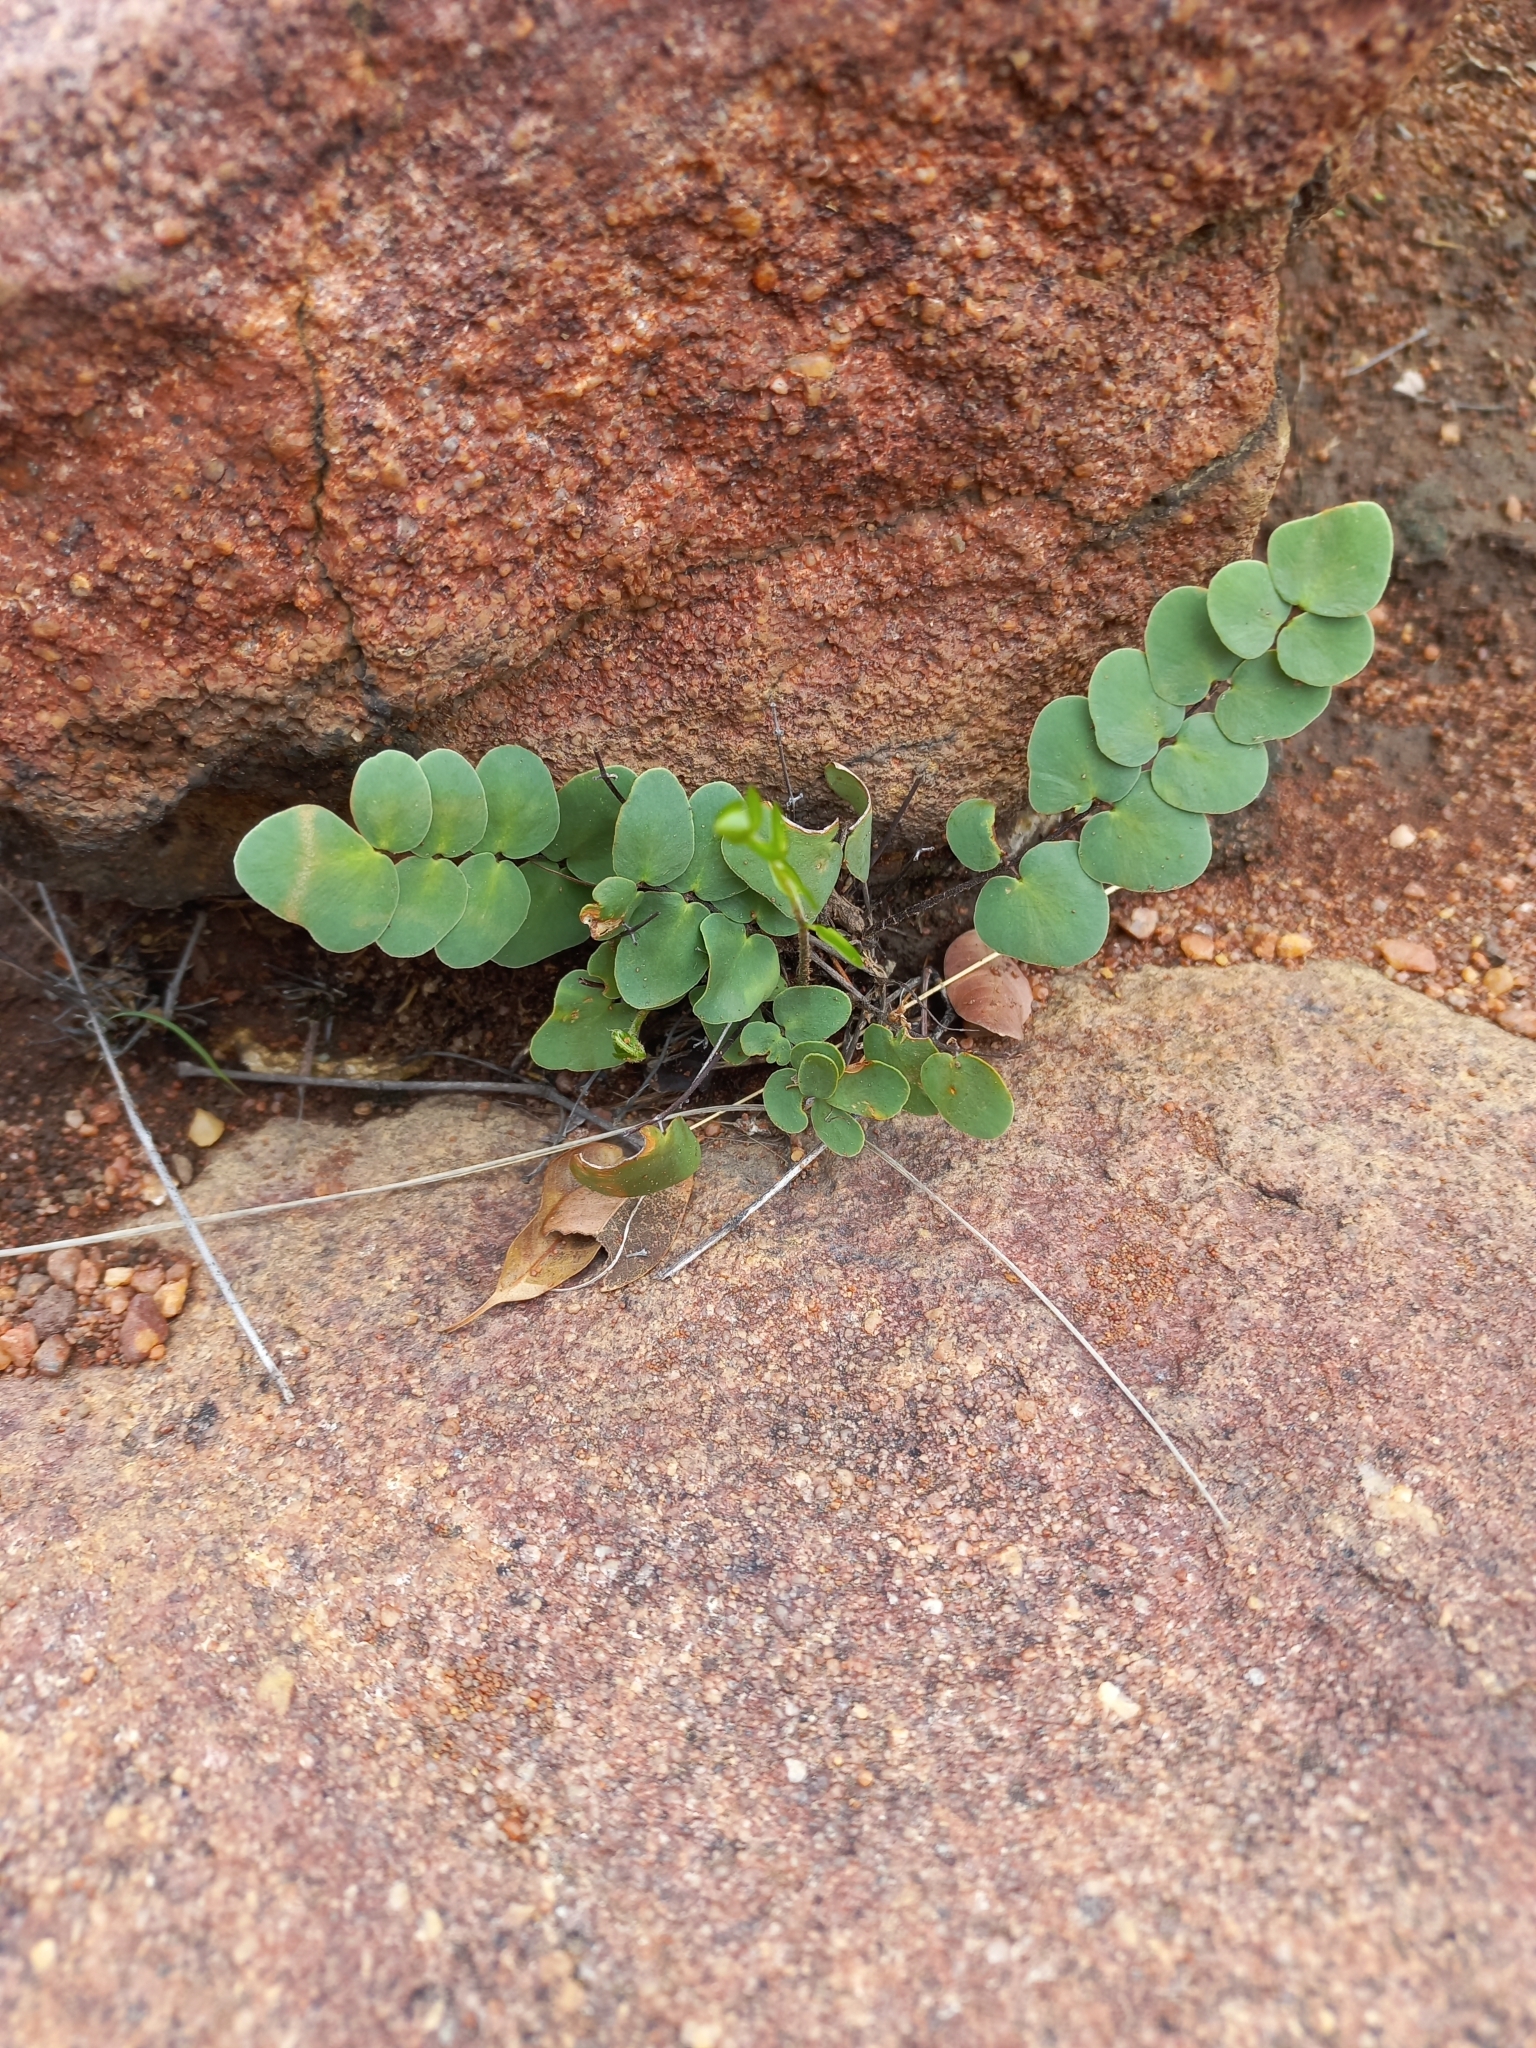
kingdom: Plantae
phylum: Tracheophyta
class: Polypodiopsida
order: Polypodiales
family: Pteridaceae
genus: Pellaea
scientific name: Pellaea calomelanos
